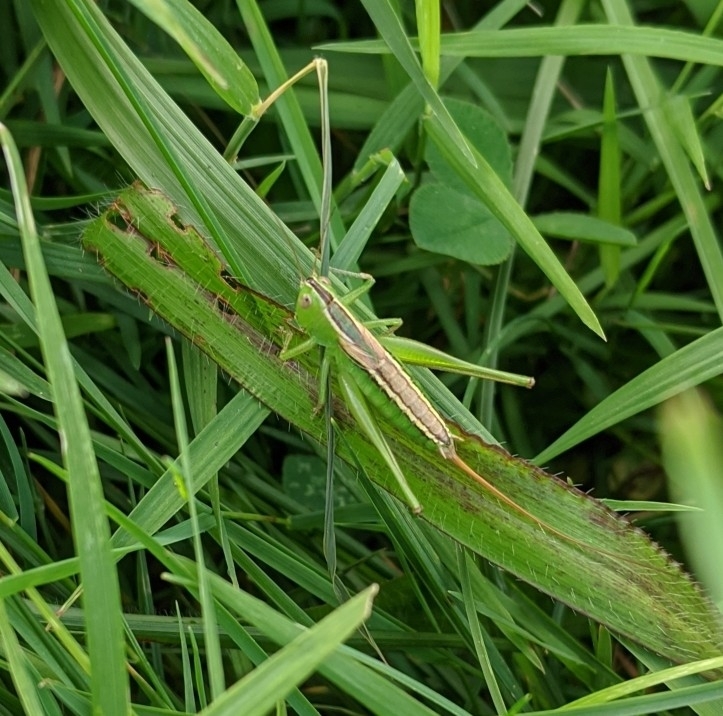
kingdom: Animalia
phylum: Arthropoda
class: Insecta
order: Orthoptera
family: Tettigoniidae
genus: Conocephalus
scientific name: Conocephalus strictus
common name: Straight-lanced katydid
